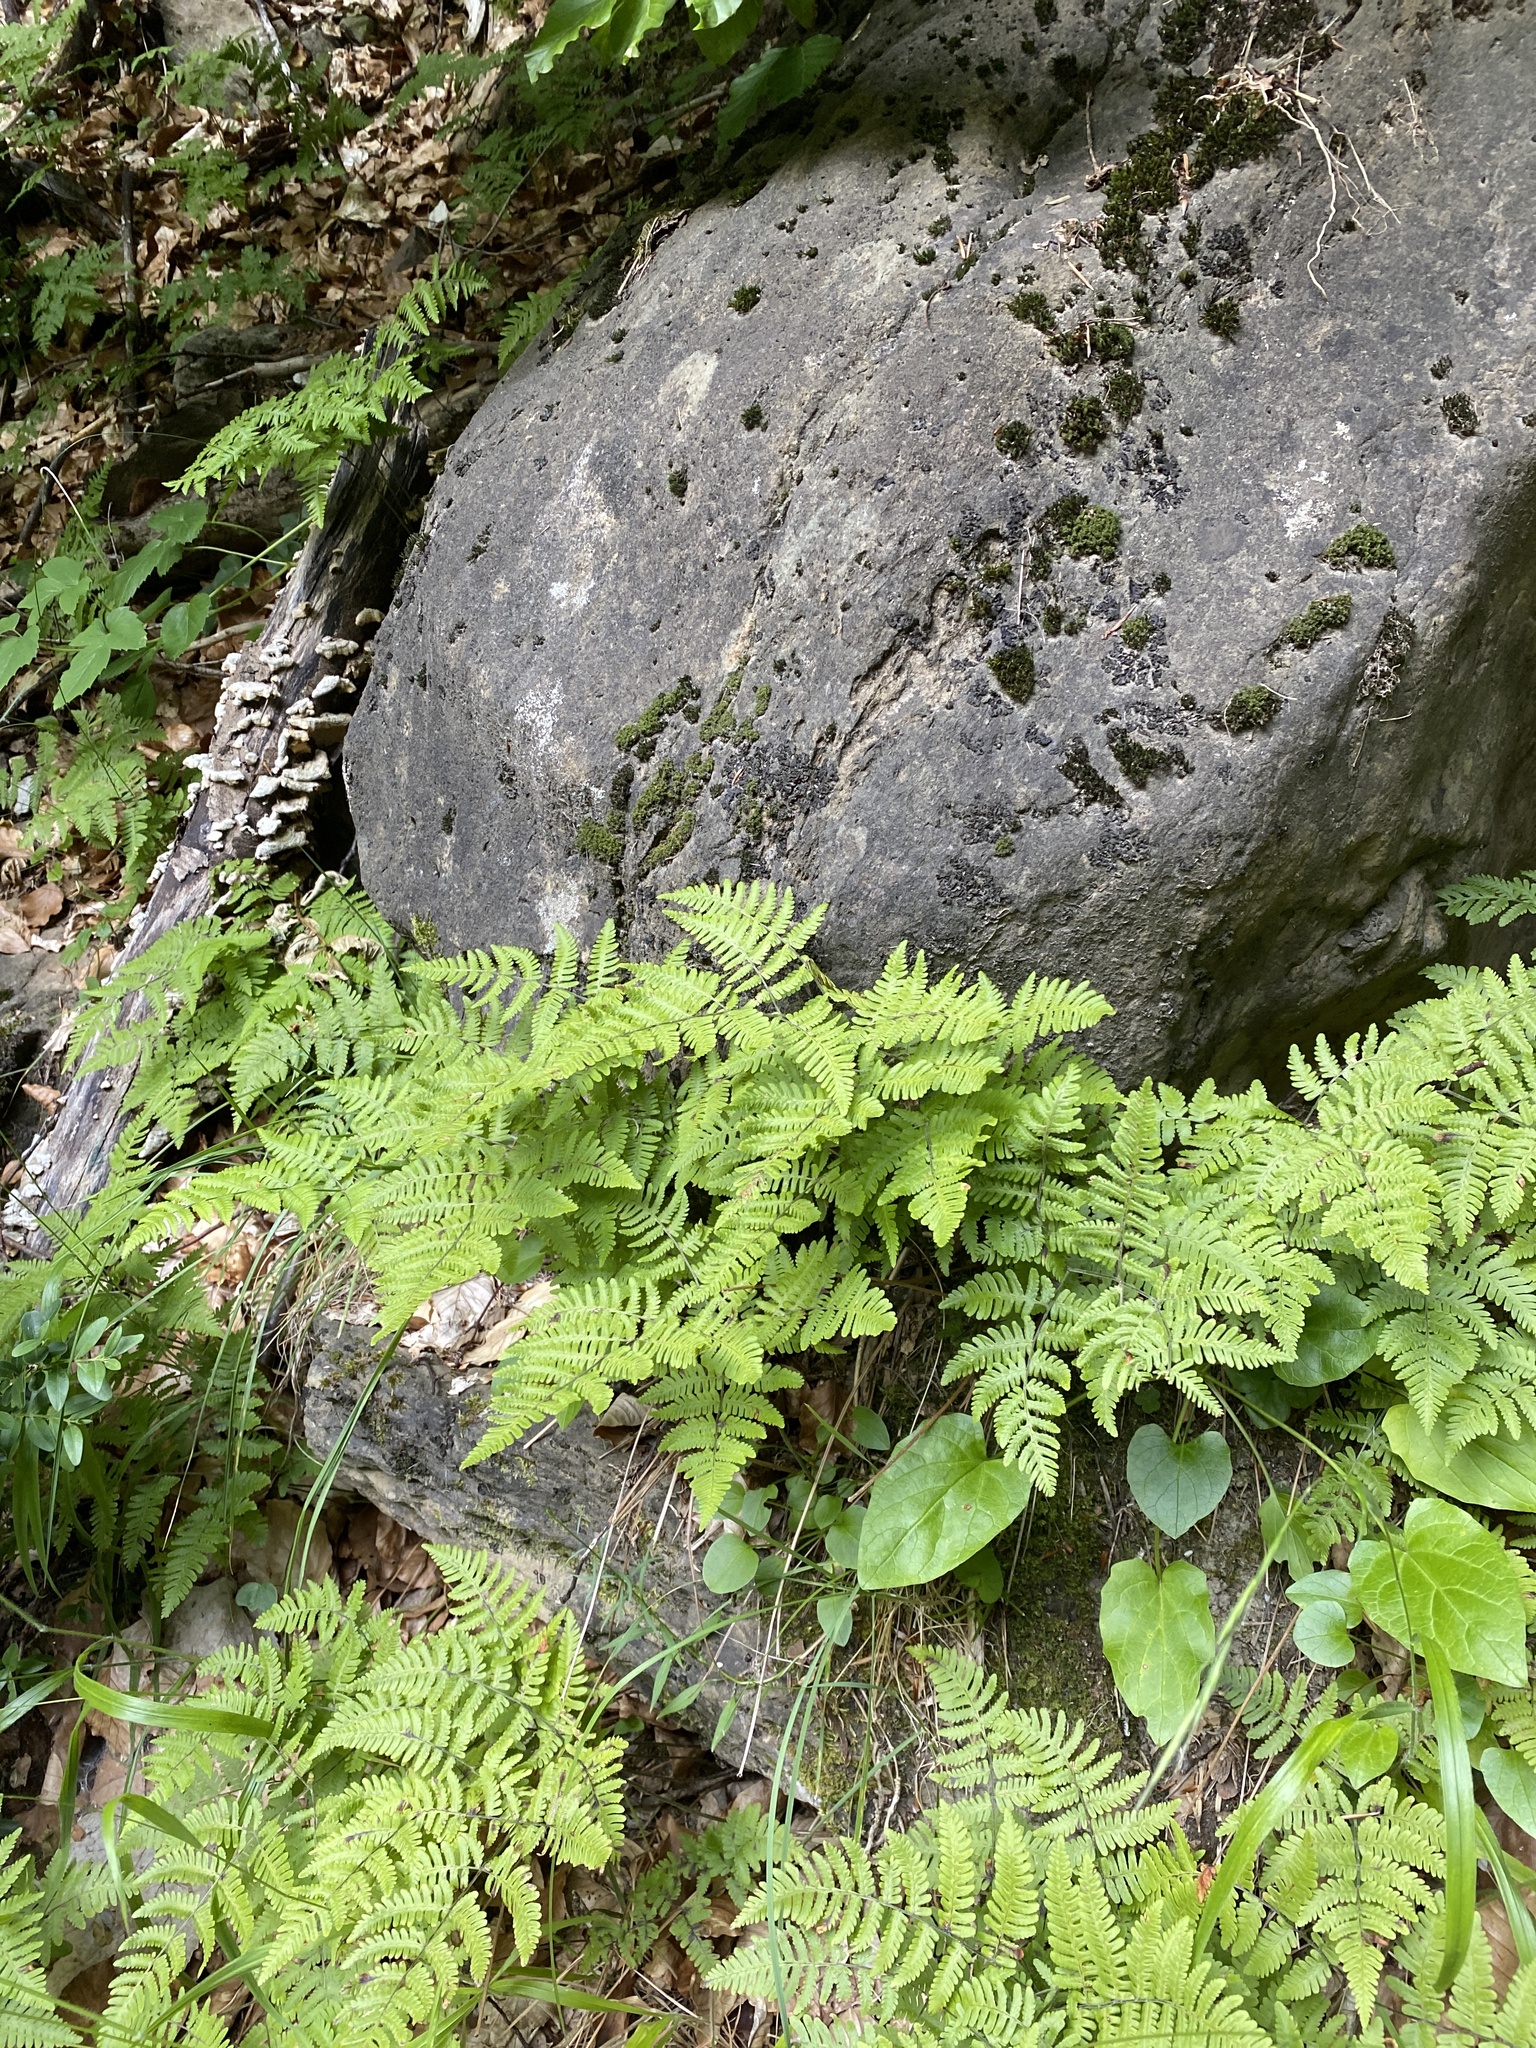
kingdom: Plantae
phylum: Tracheophyta
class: Polypodiopsida
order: Polypodiales
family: Cystopteridaceae
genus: Gymnocarpium
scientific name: Gymnocarpium robertianum
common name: Limestone fern
